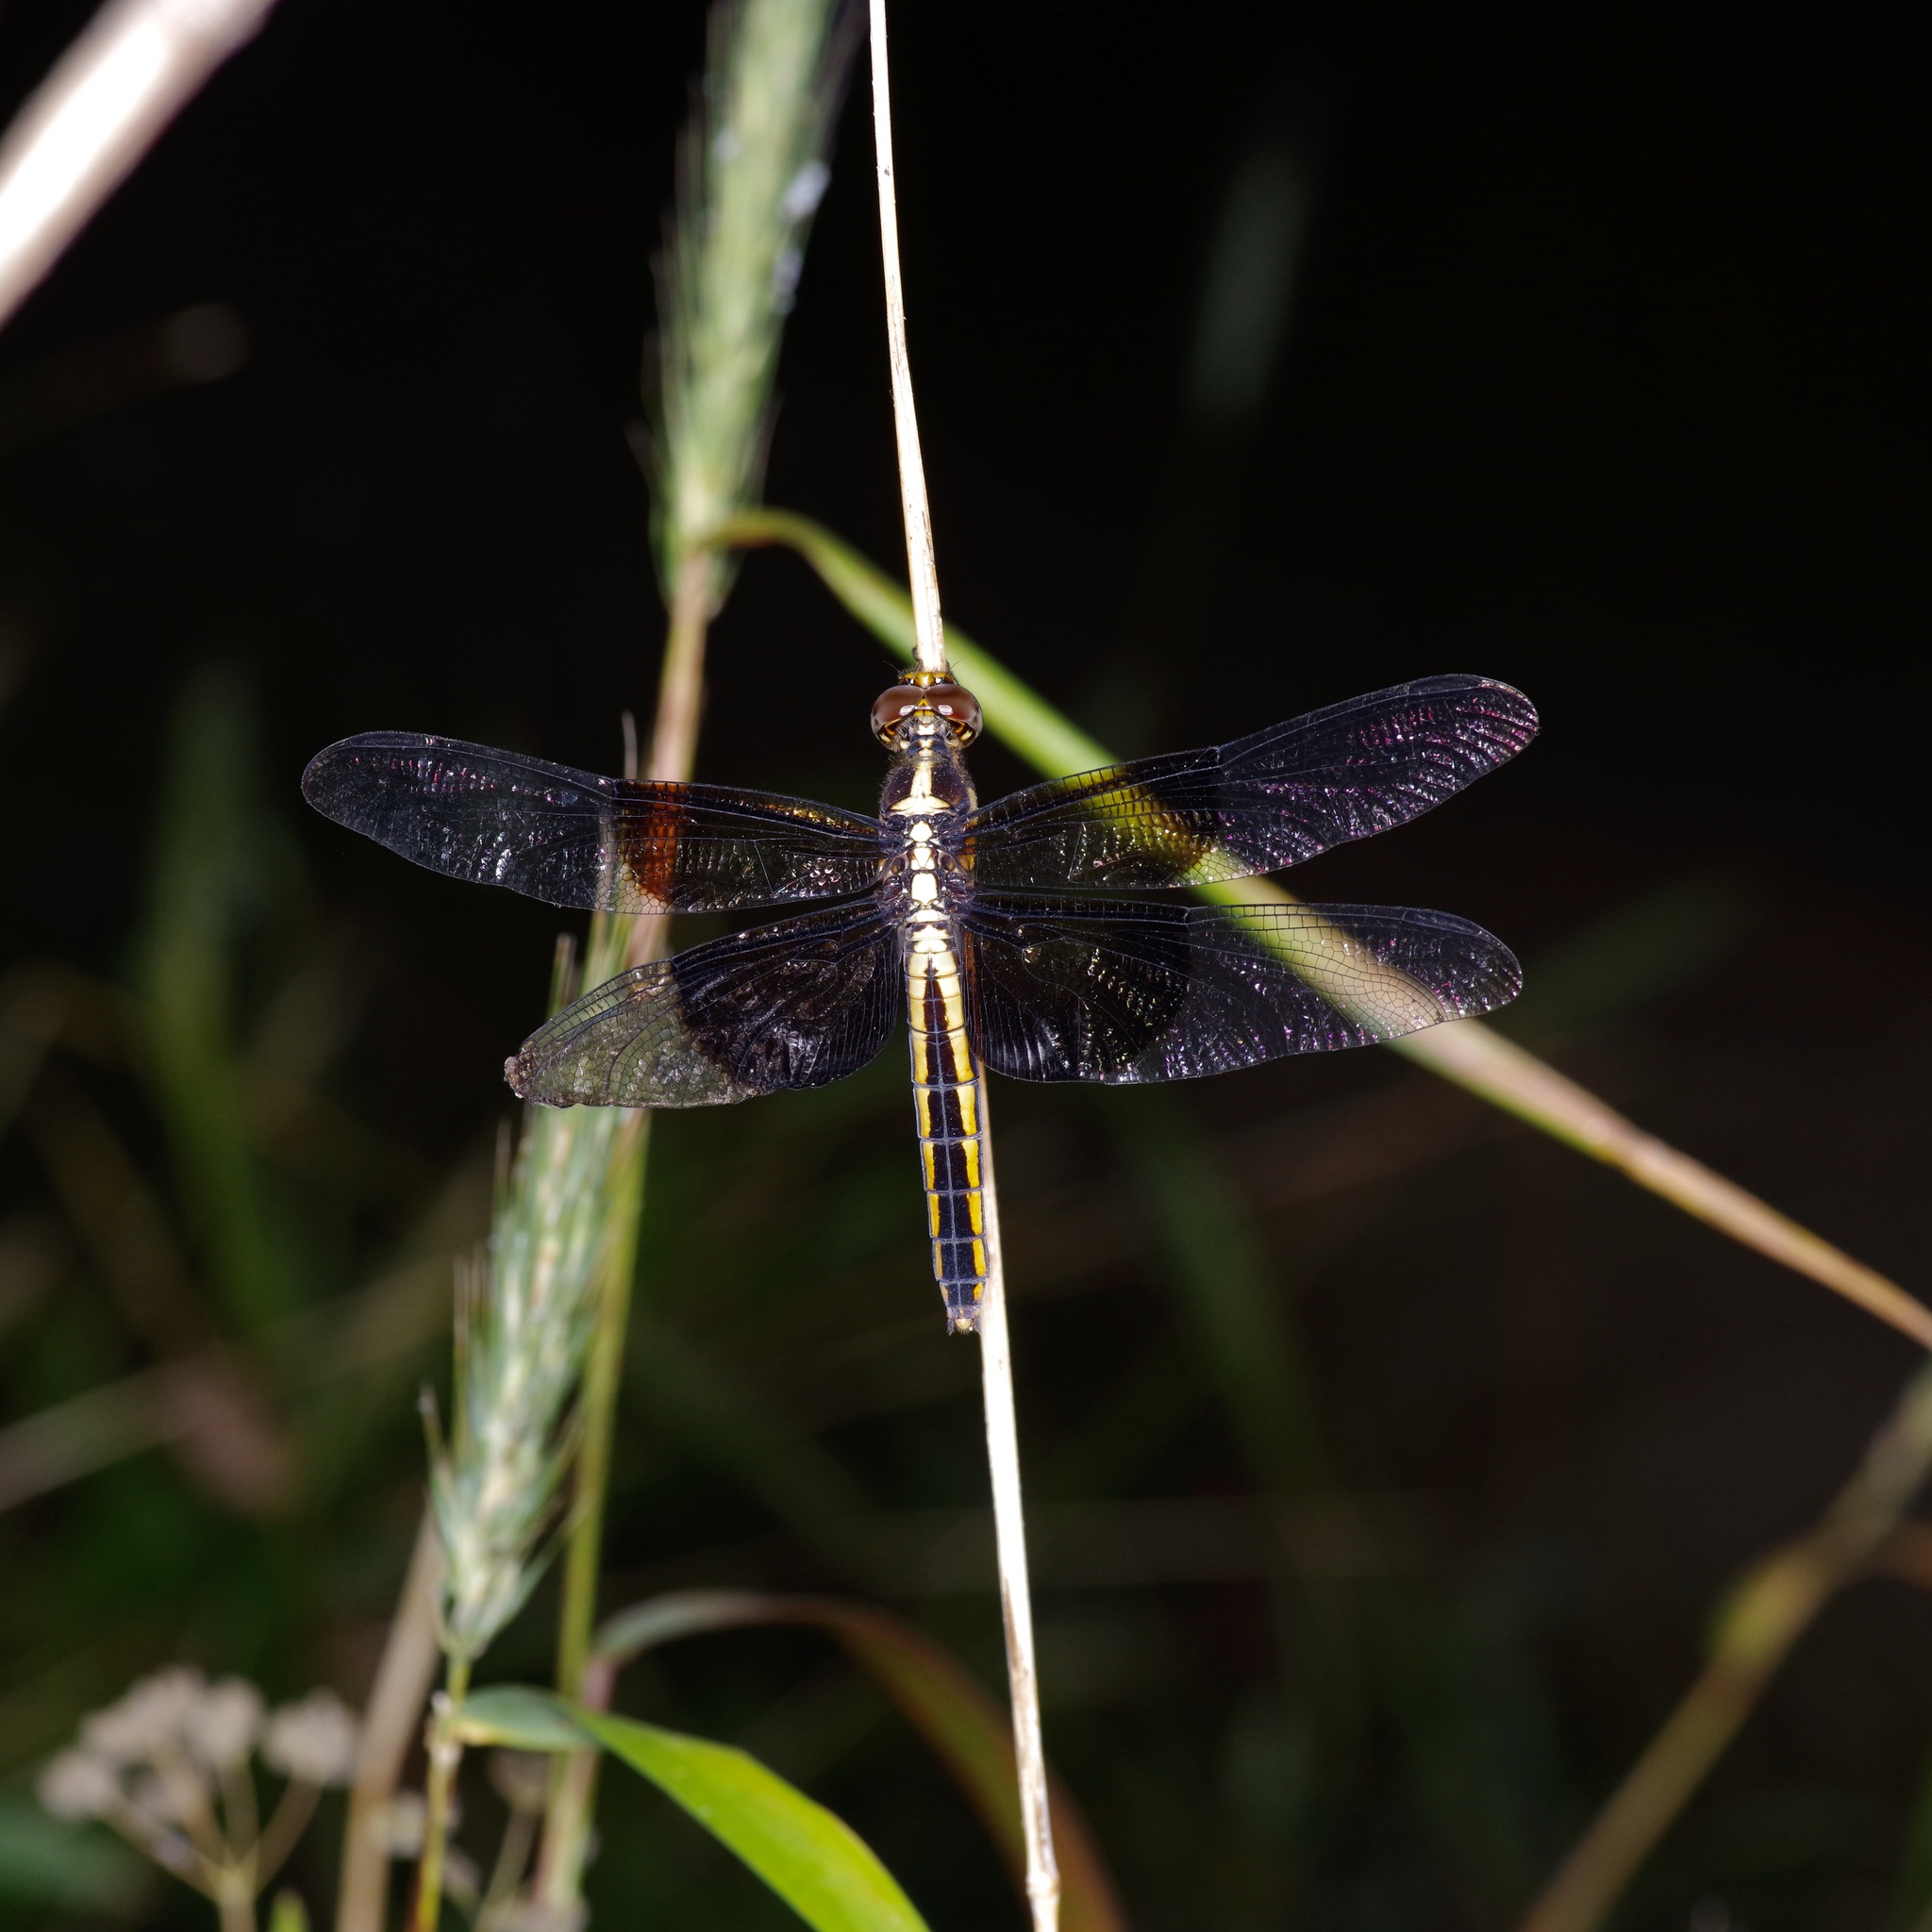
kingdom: Animalia
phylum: Arthropoda
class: Insecta
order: Odonata
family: Libellulidae
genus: Libellula
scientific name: Libellula luctuosa
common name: Widow skimmer
